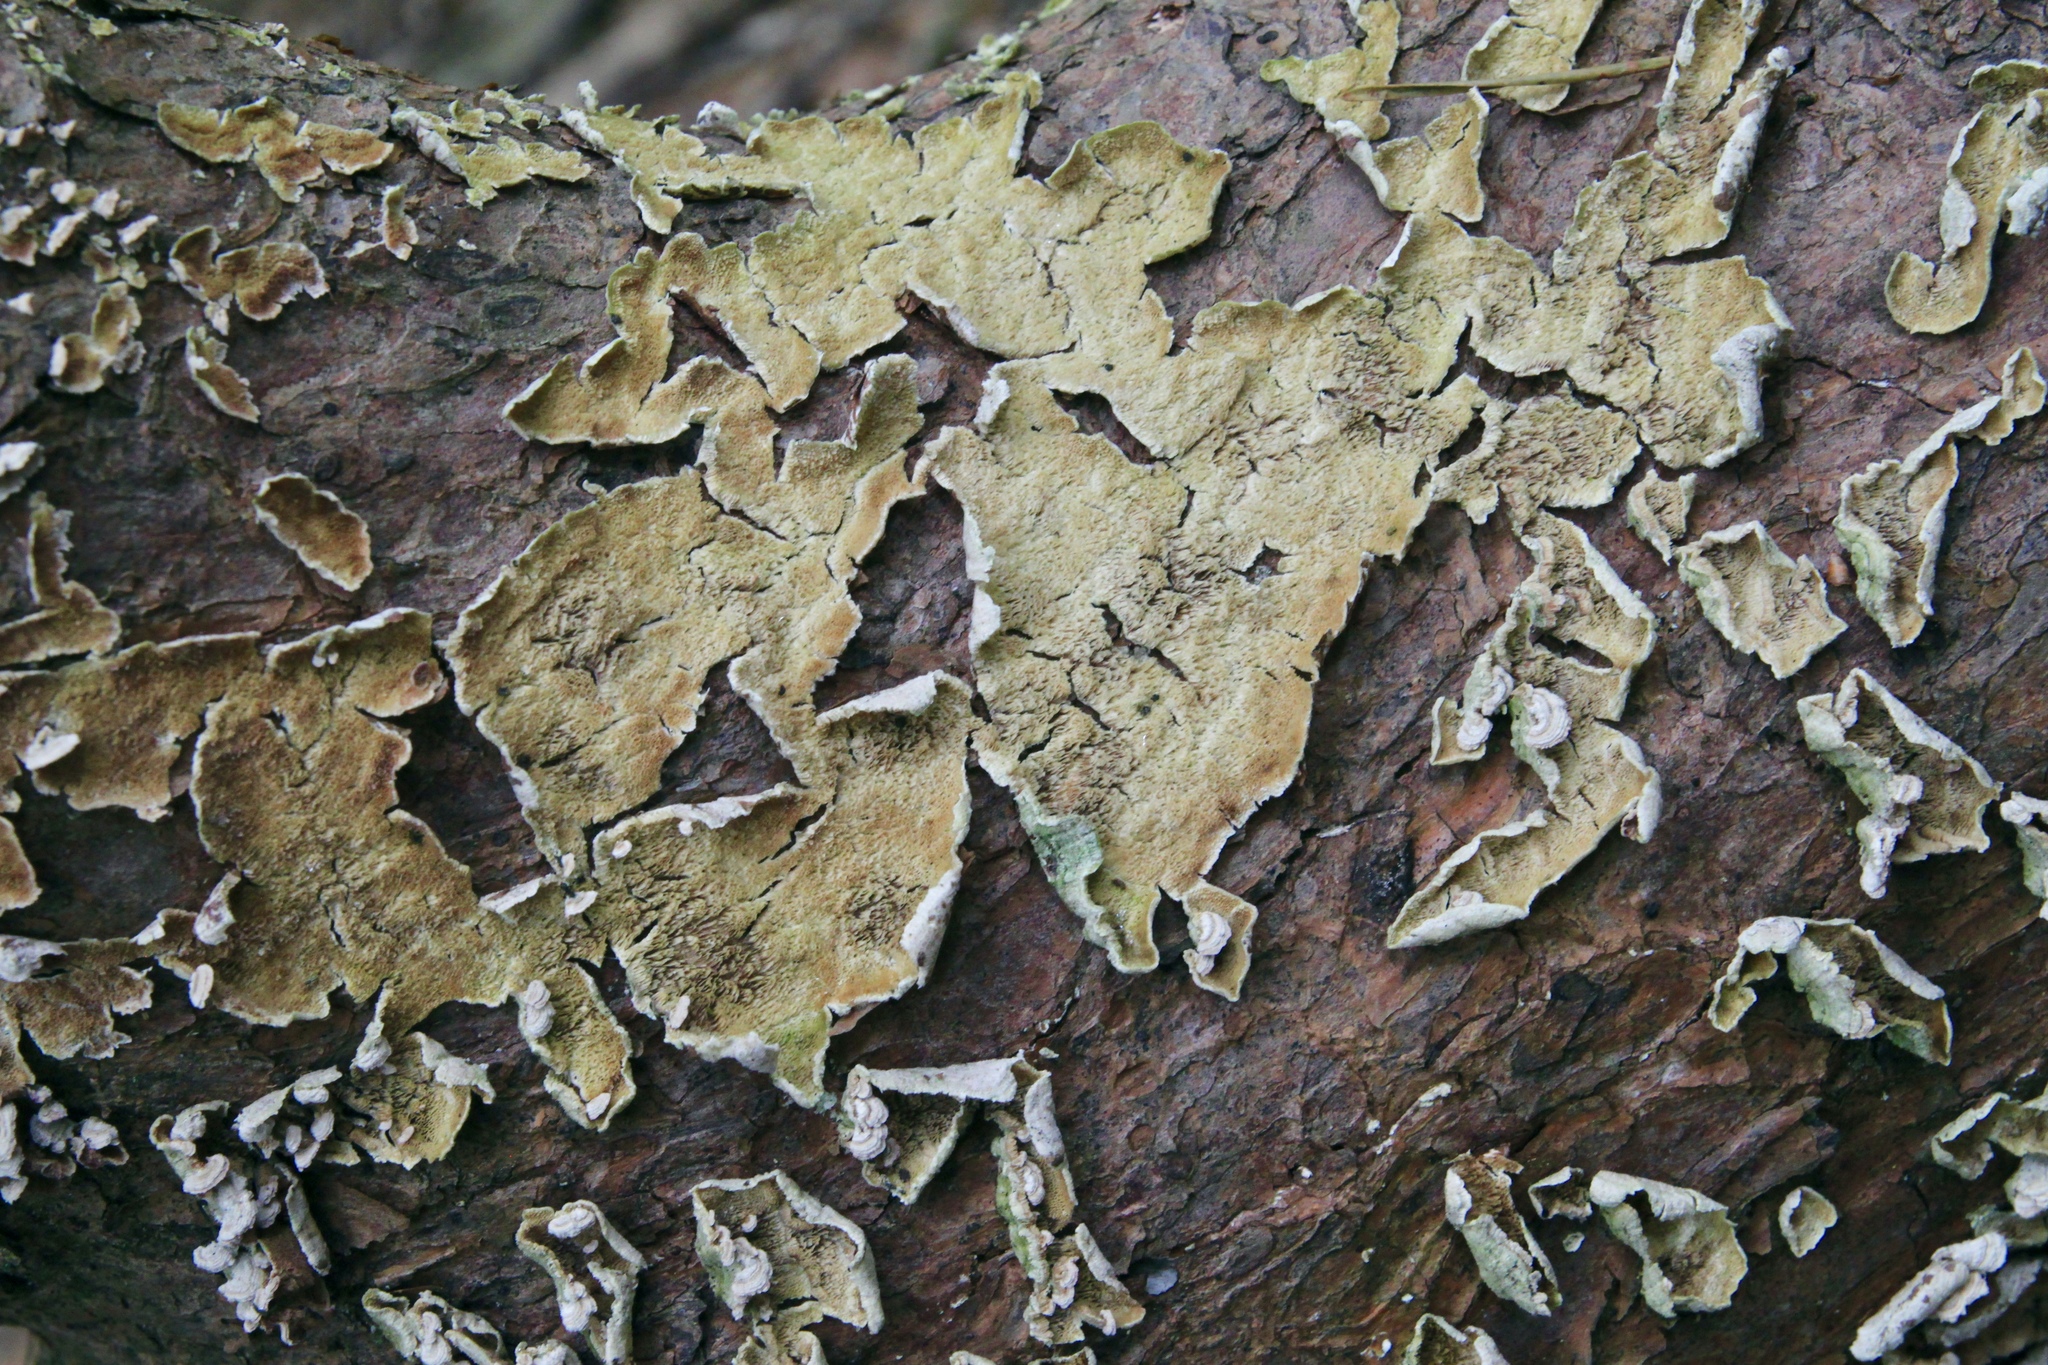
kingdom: Fungi
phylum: Basidiomycota
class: Agaricomycetes
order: Hymenochaetales
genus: Trichaptum
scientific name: Trichaptum abietinum
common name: Purplepore bracket
